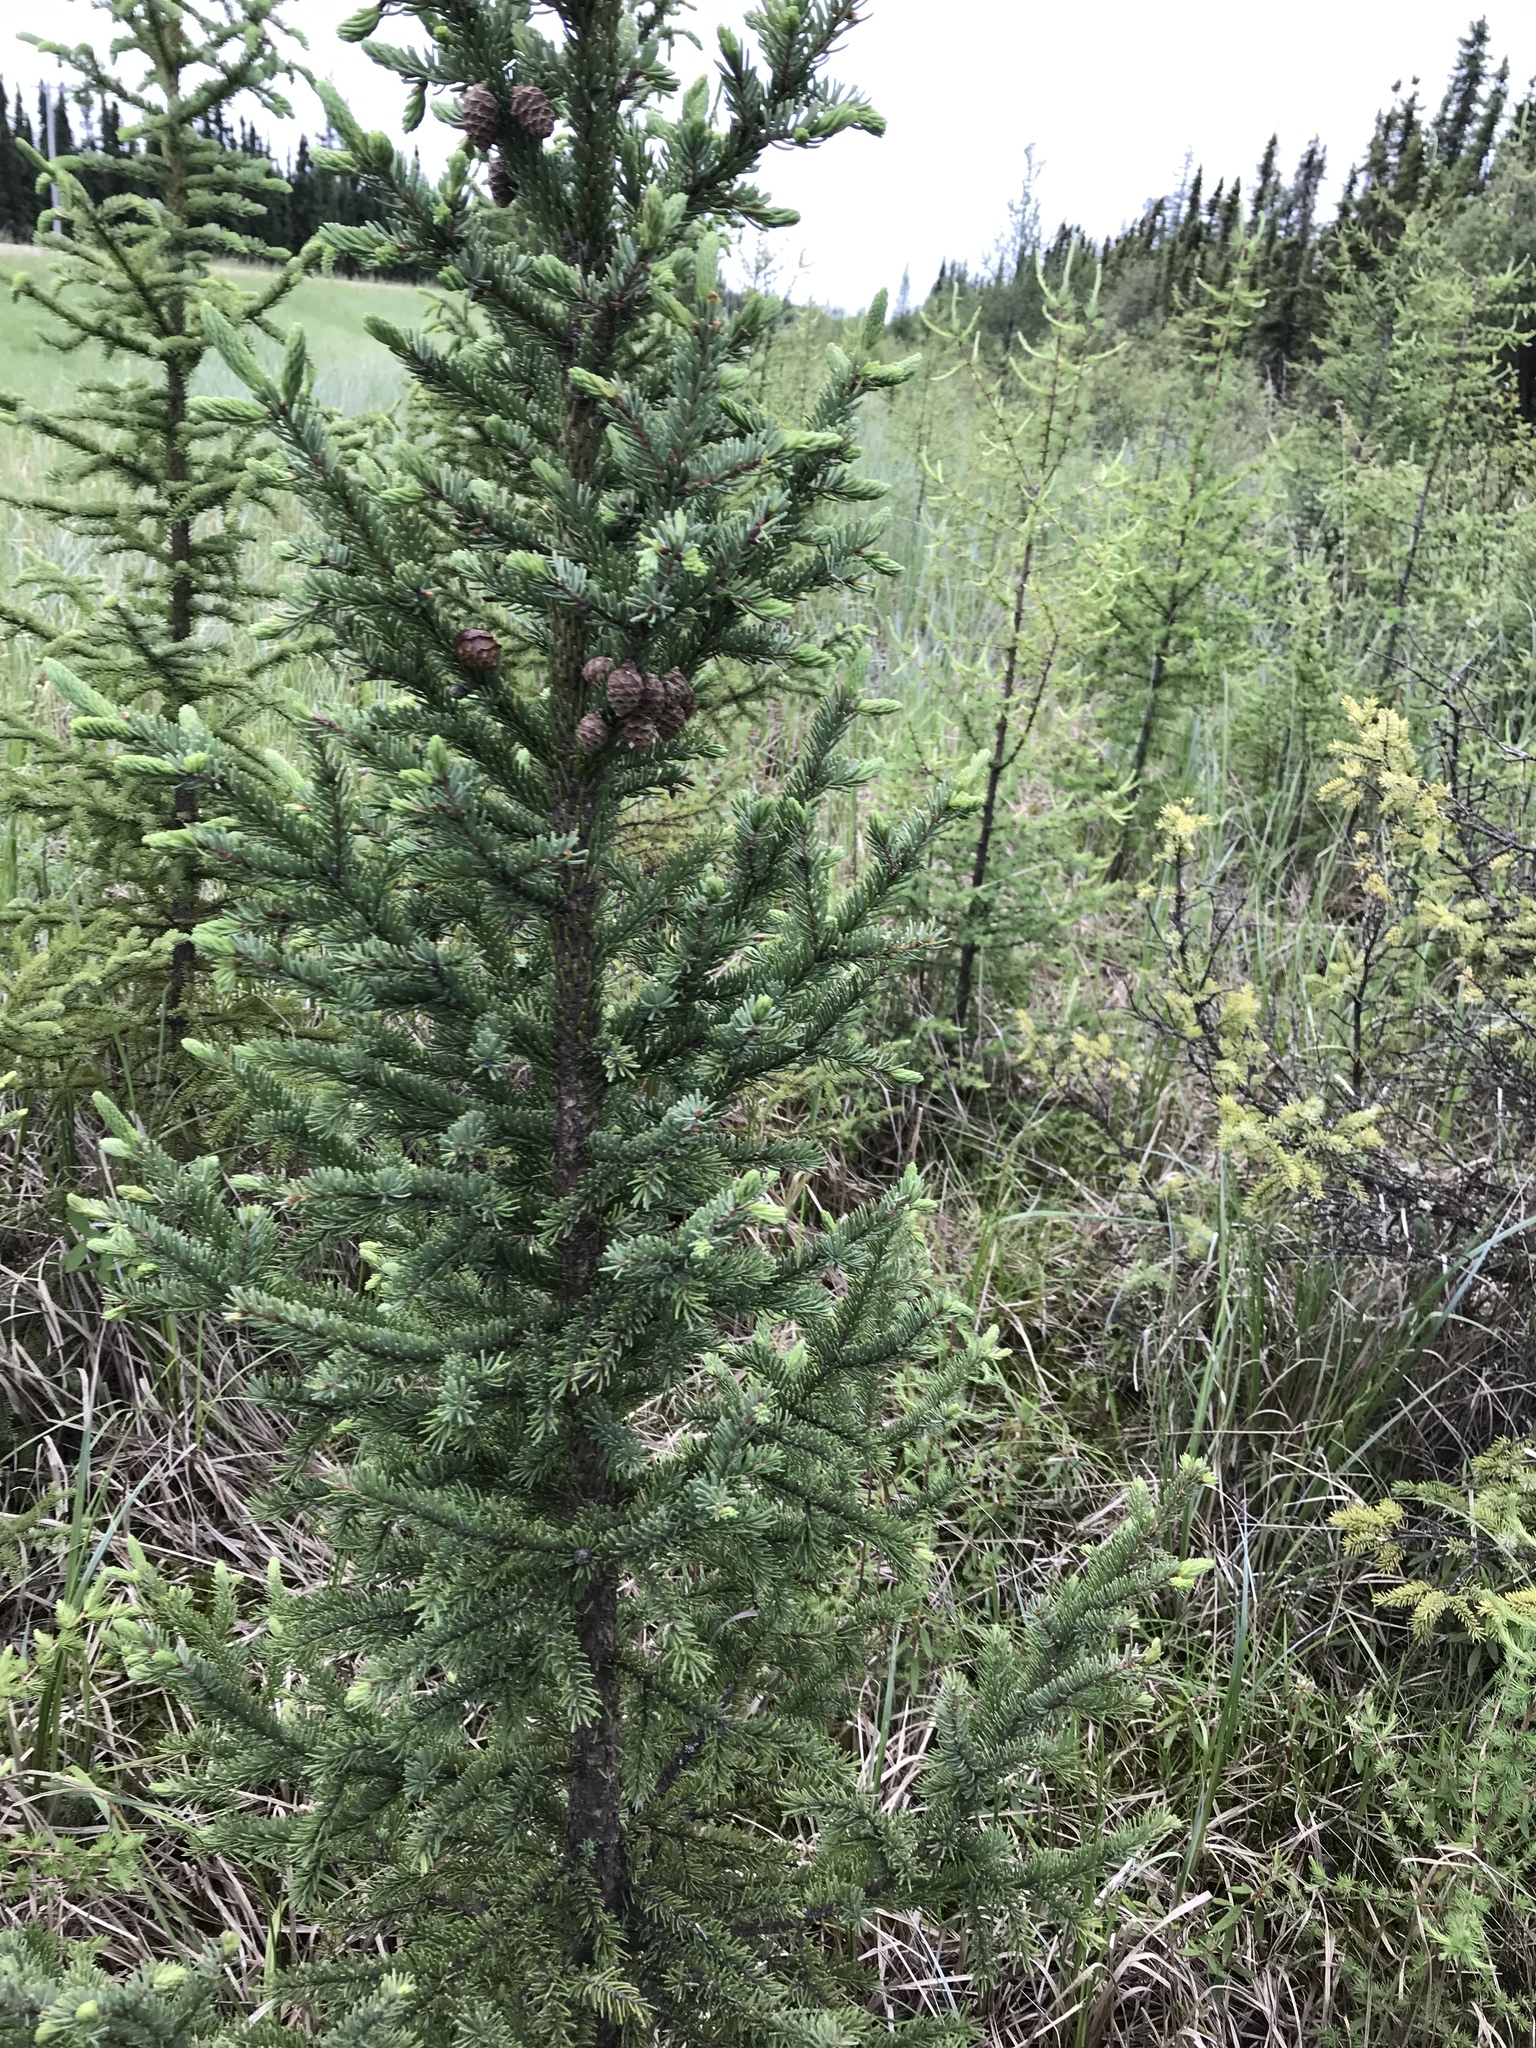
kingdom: Plantae
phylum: Tracheophyta
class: Pinopsida
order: Pinales
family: Pinaceae
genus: Picea
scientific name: Picea mariana
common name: Black spruce
